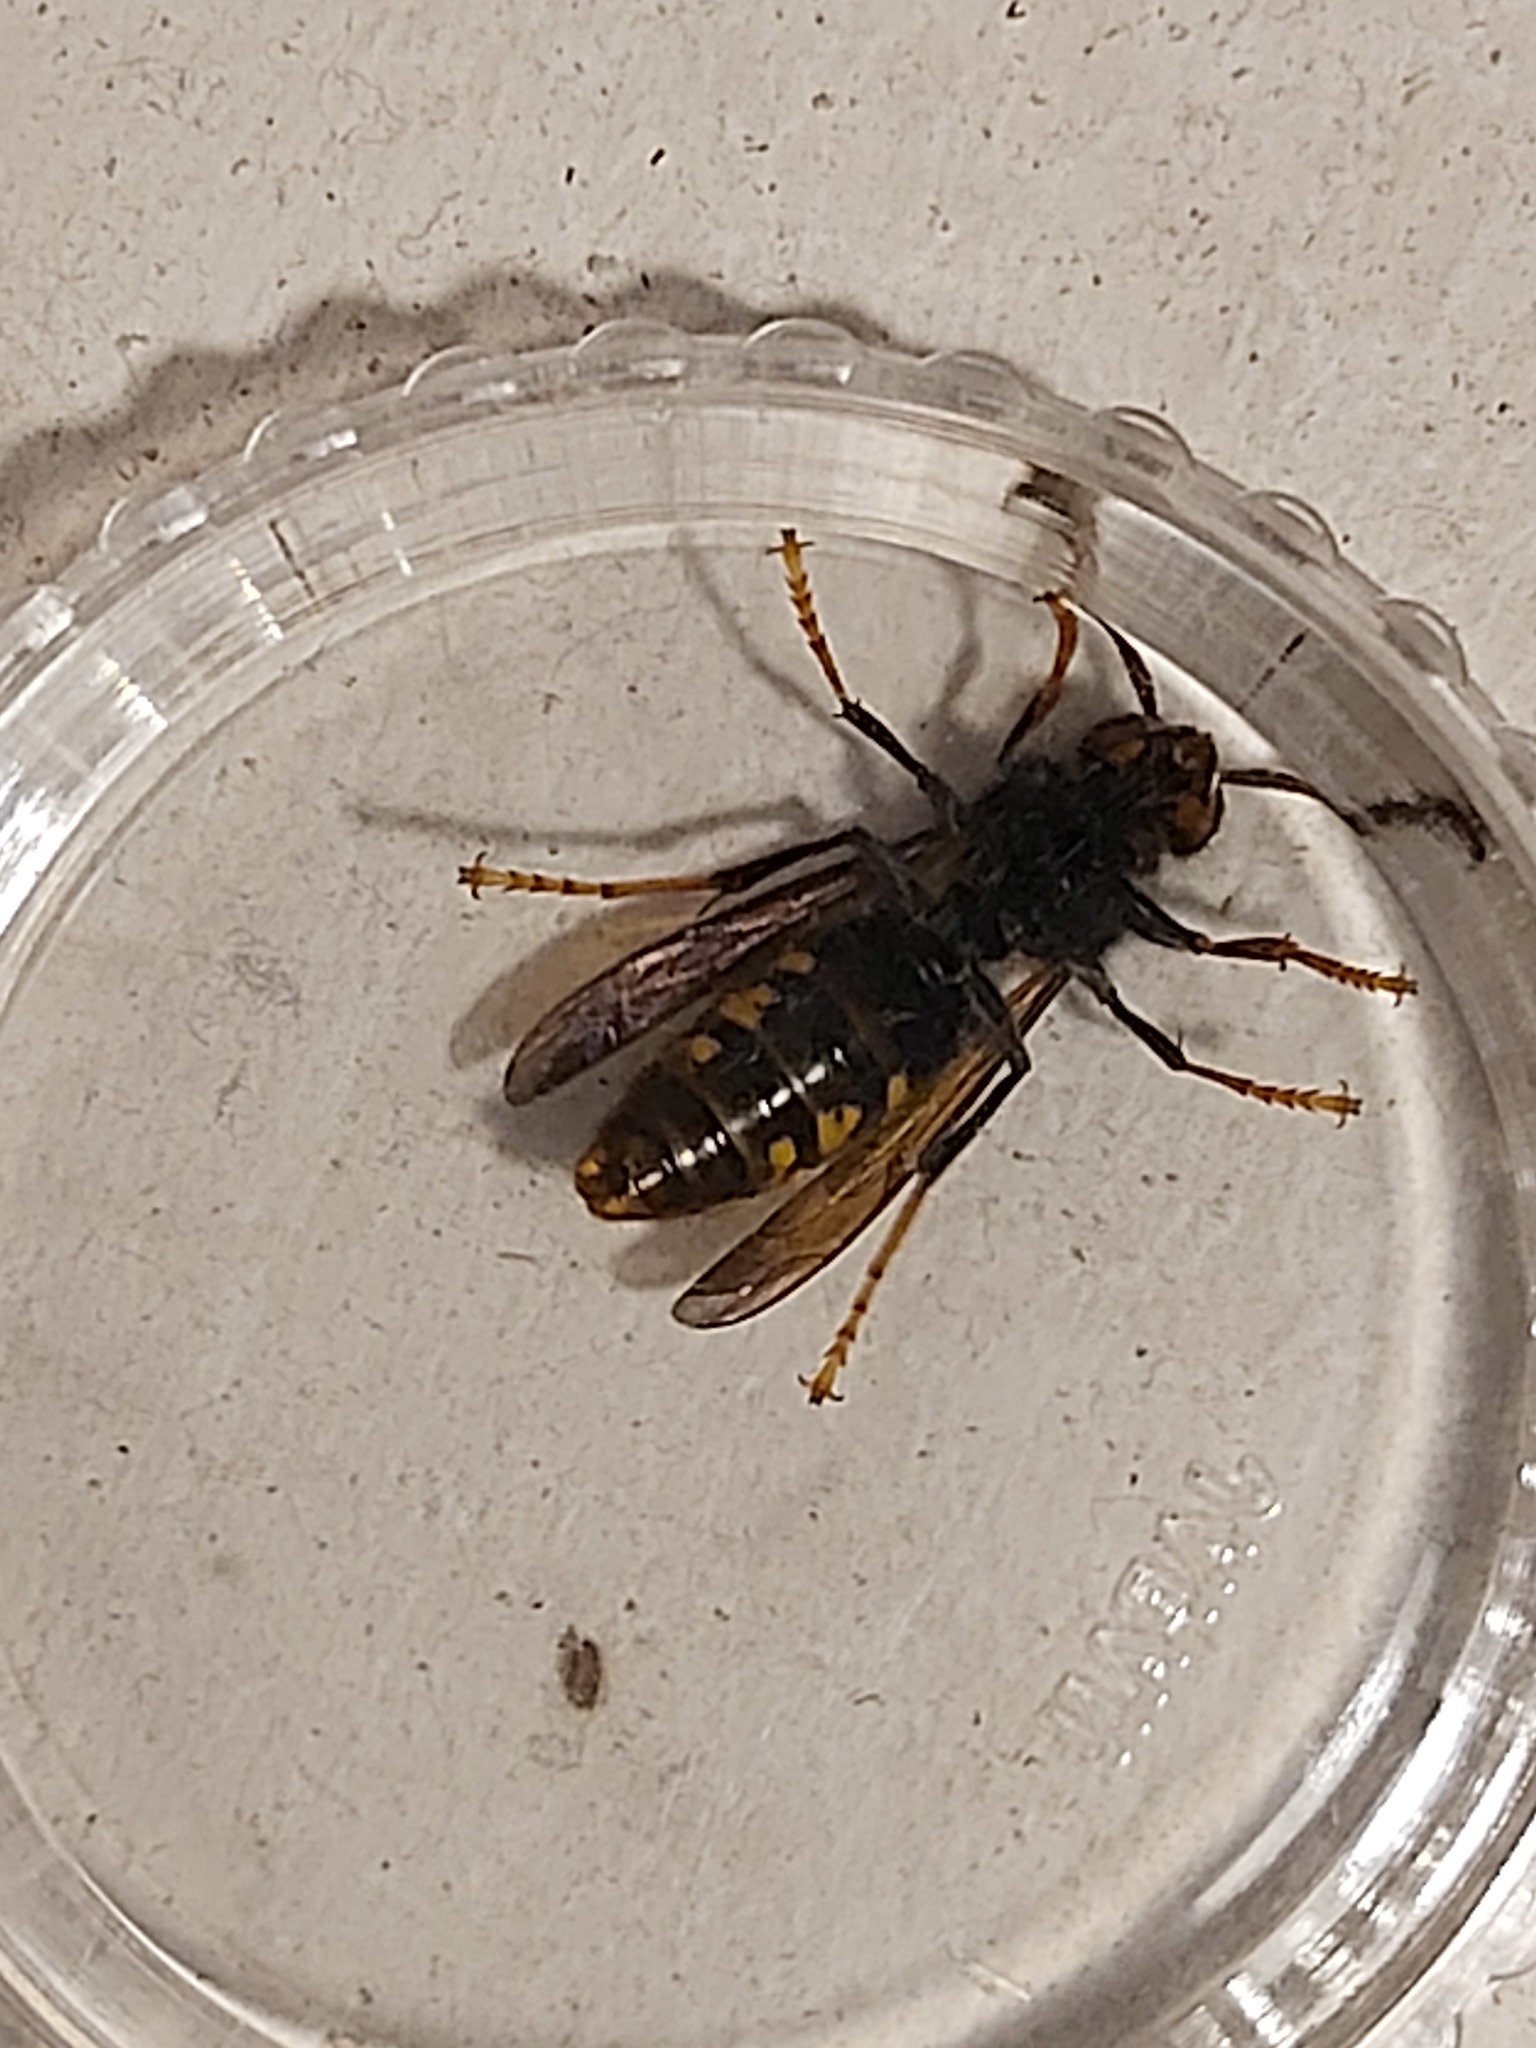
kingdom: Animalia
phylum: Arthropoda
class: Insecta
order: Hymenoptera
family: Vespidae
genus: Vespa
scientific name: Vespa velutina
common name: Asian hornet
